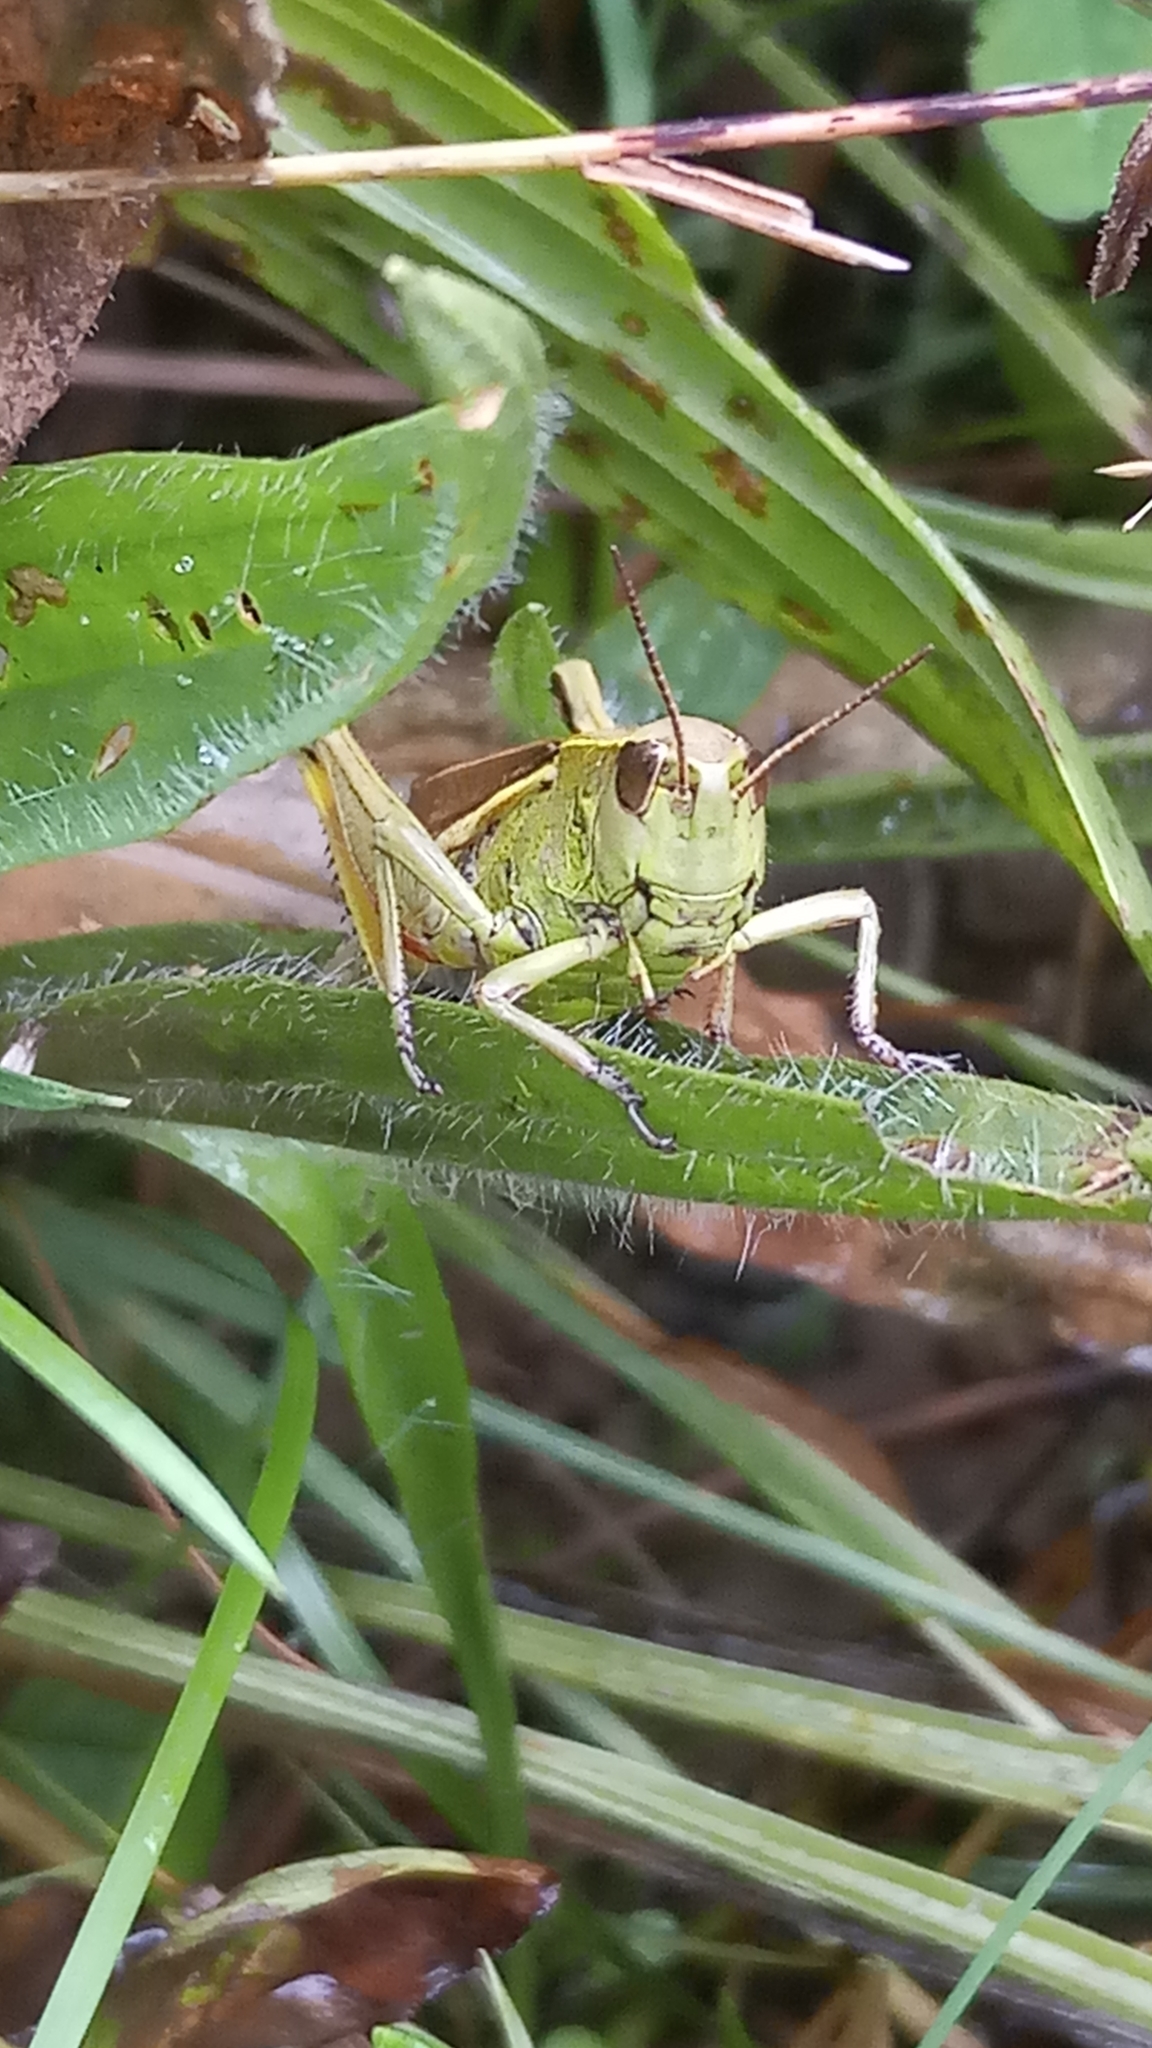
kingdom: Animalia
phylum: Arthropoda
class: Insecta
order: Orthoptera
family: Acrididae
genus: Stethophyma
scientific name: Stethophyma grossum
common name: Large marsh grasshopper
